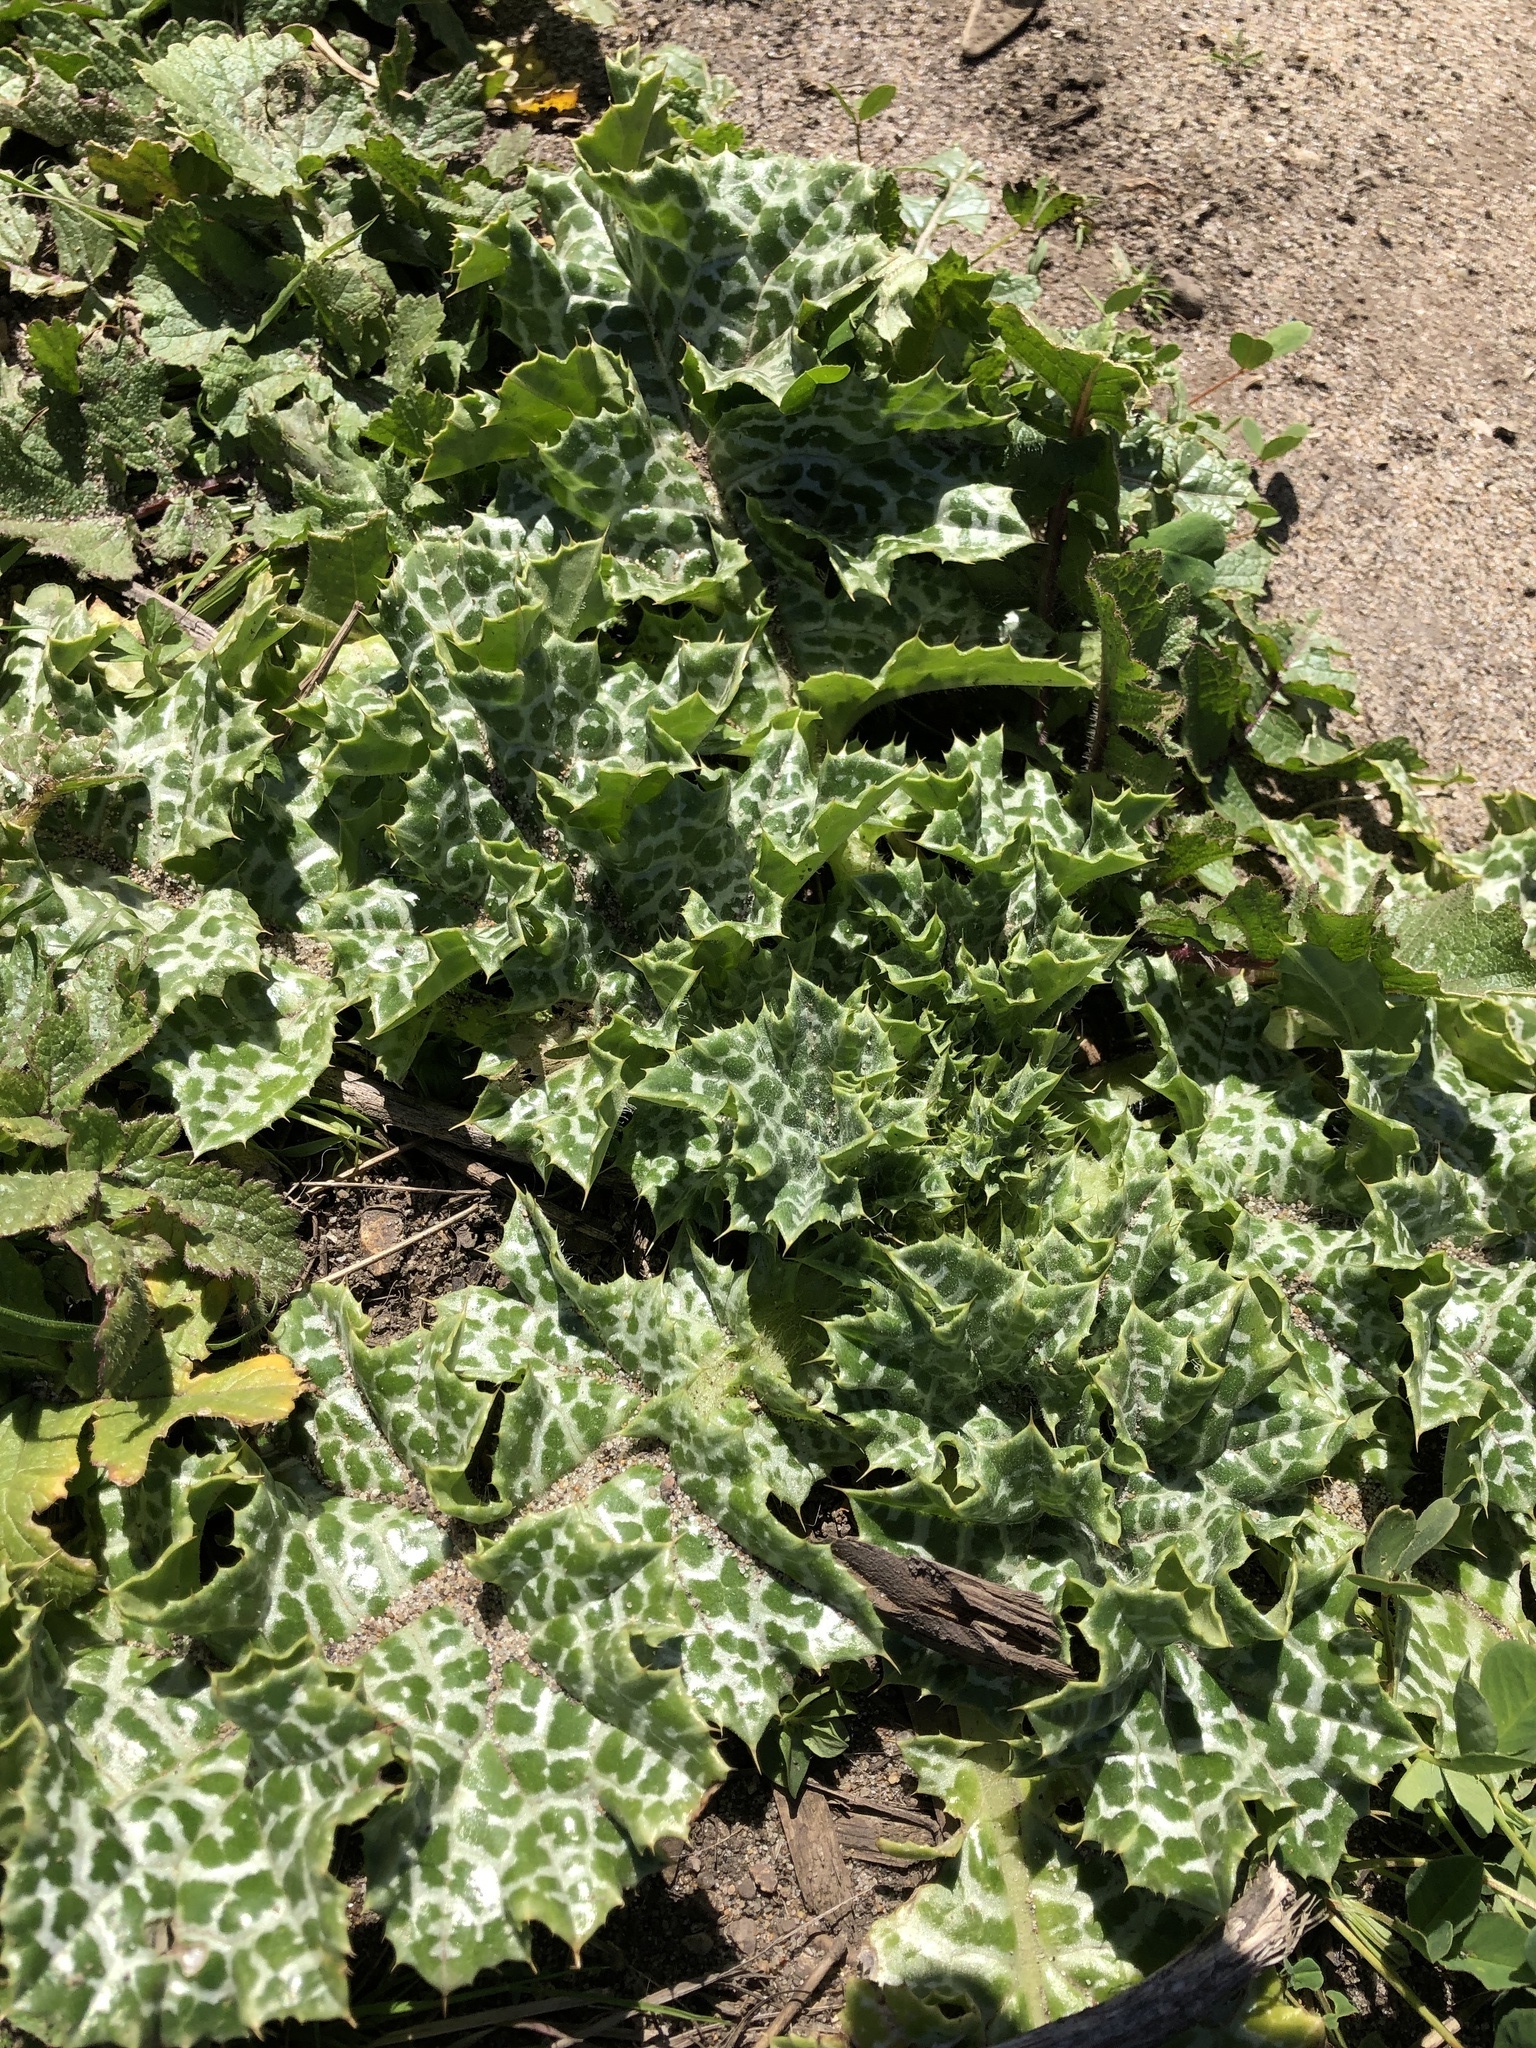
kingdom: Plantae
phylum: Tracheophyta
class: Magnoliopsida
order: Asterales
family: Asteraceae
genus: Silybum
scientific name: Silybum marianum
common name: Milk thistle
